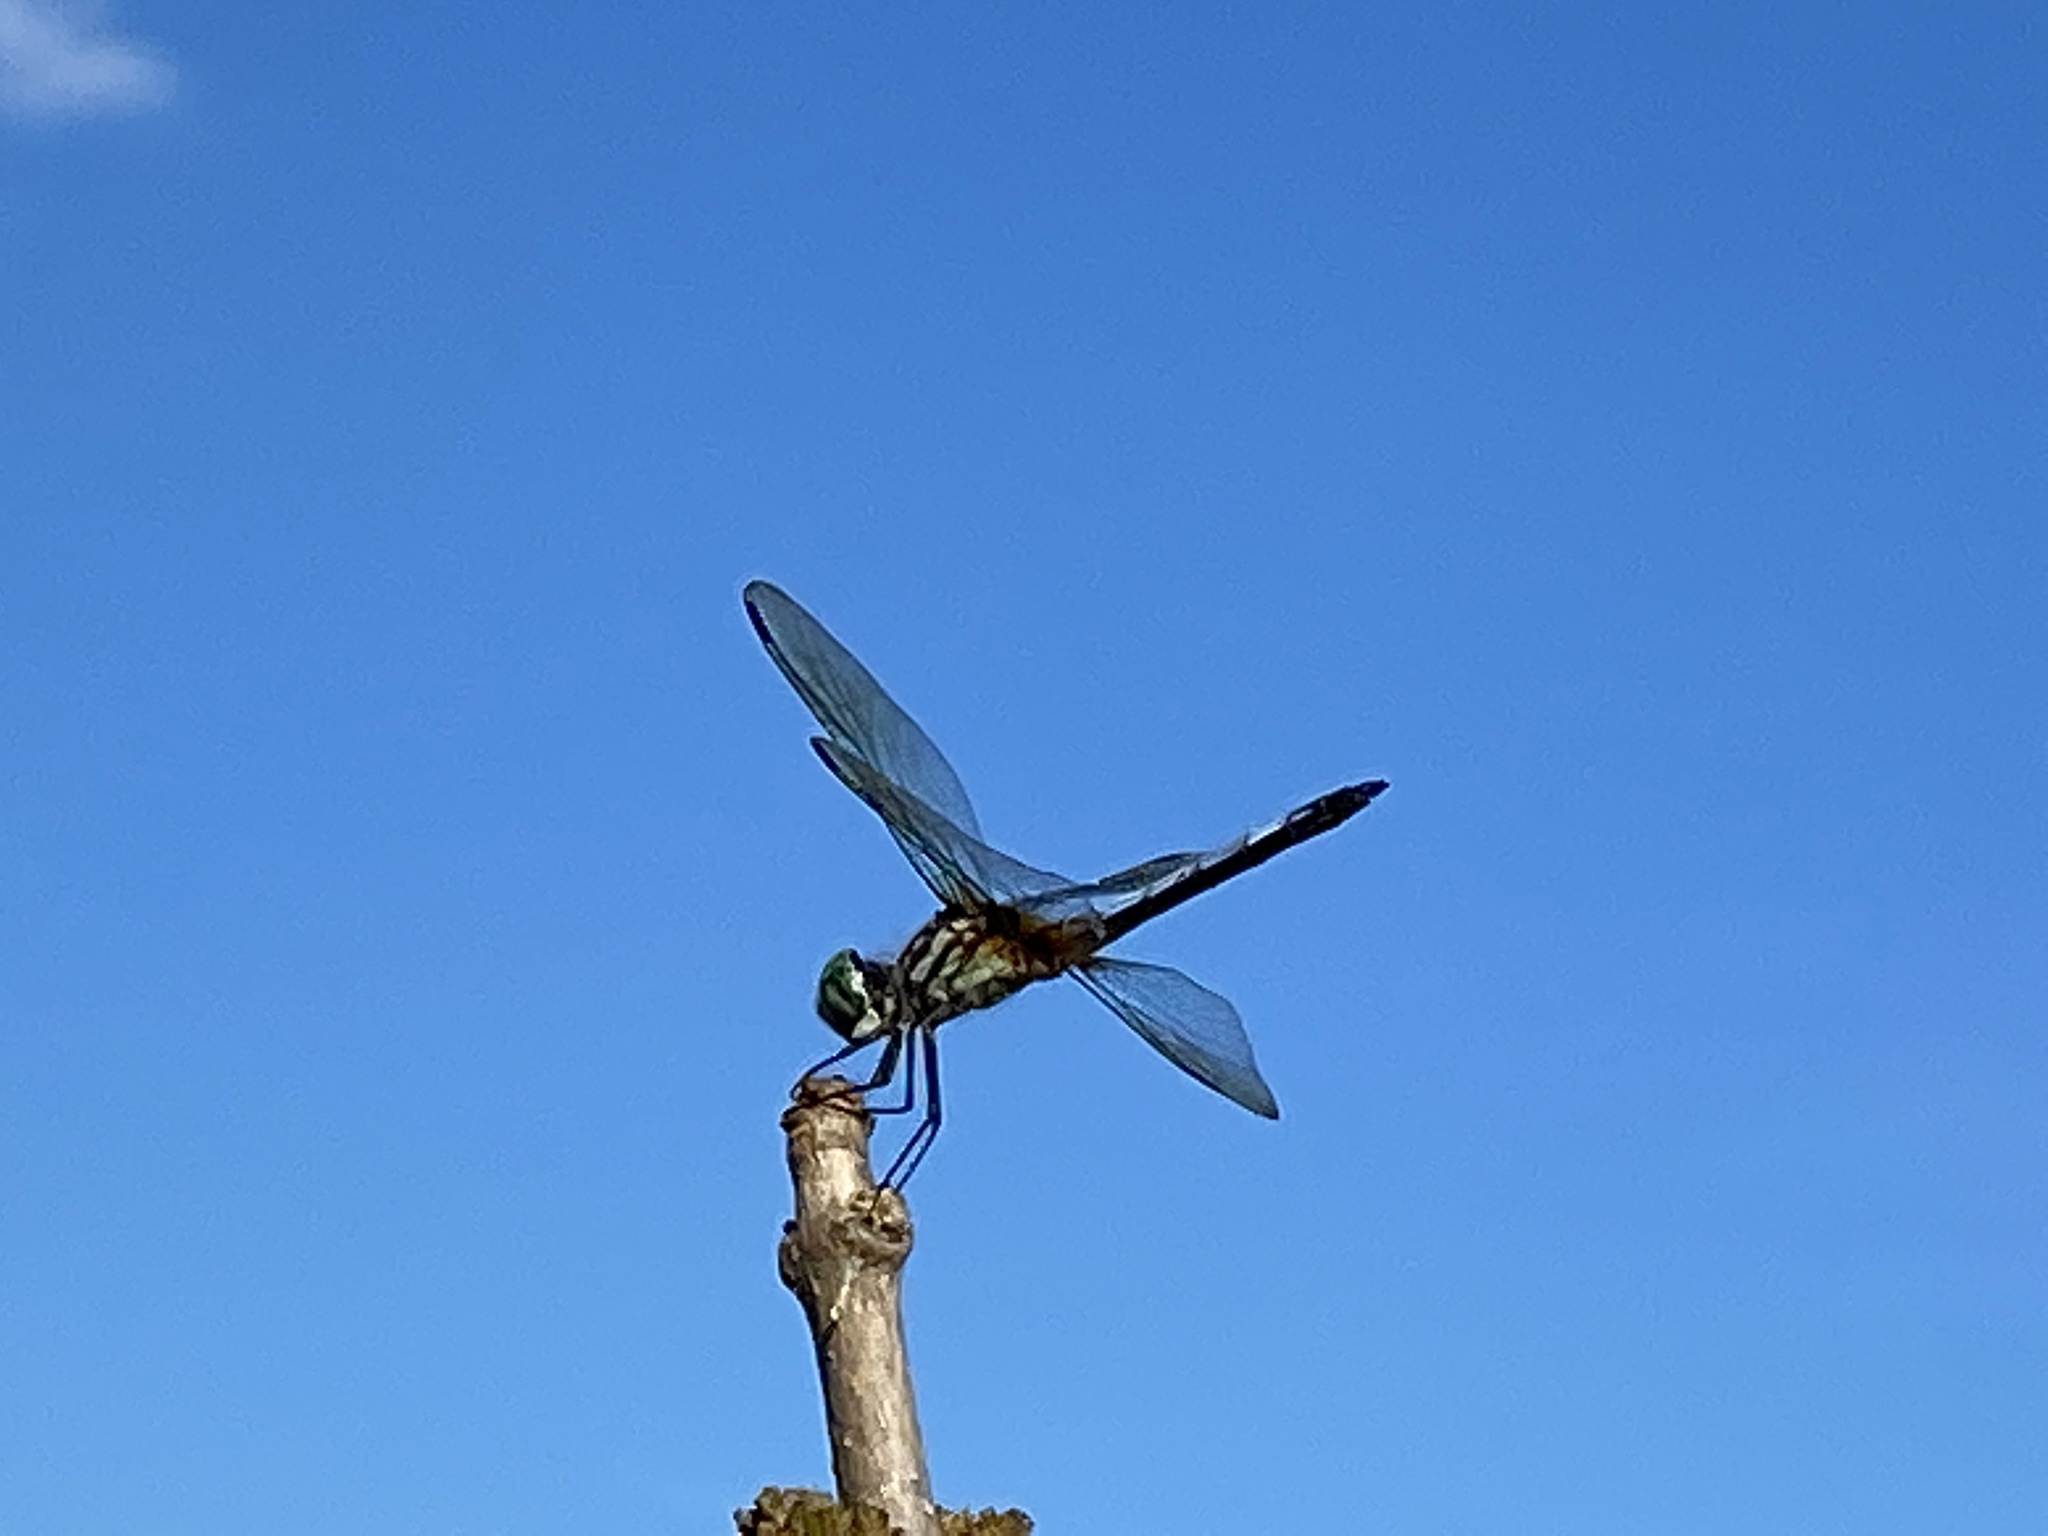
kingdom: Animalia
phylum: Arthropoda
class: Insecta
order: Odonata
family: Libellulidae
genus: Pachydiplax
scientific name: Pachydiplax longipennis
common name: Blue dasher
